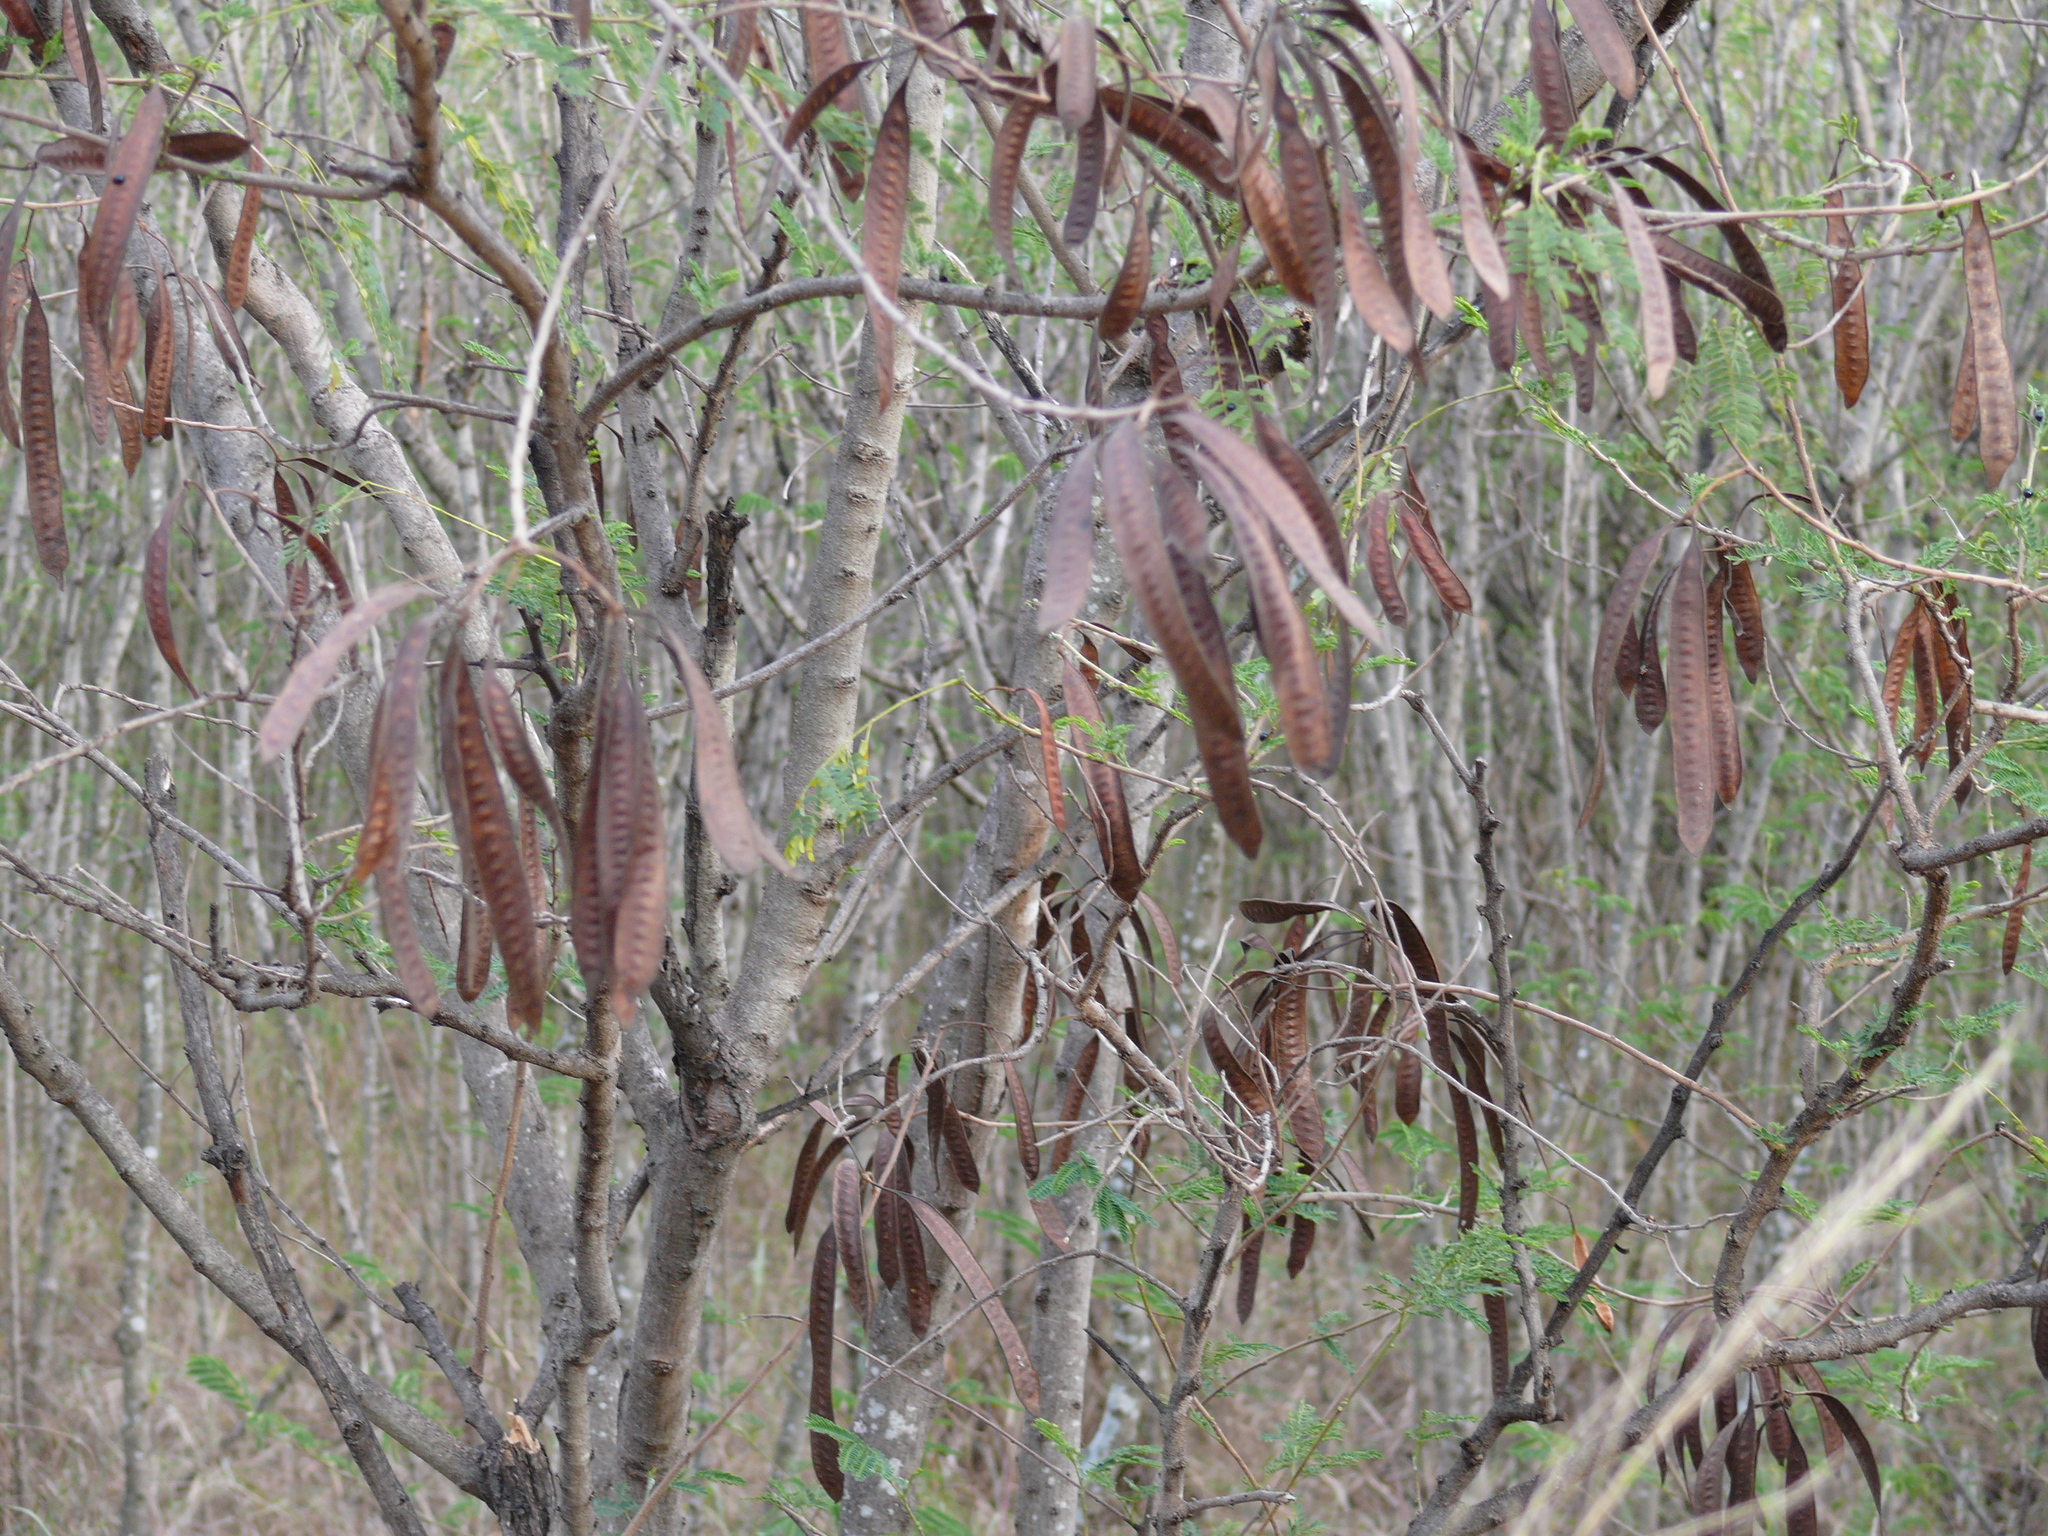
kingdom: Plantae
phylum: Tracheophyta
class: Magnoliopsida
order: Fabales
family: Fabaceae
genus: Leucaena
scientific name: Leucaena leucocephala
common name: White leadtree
